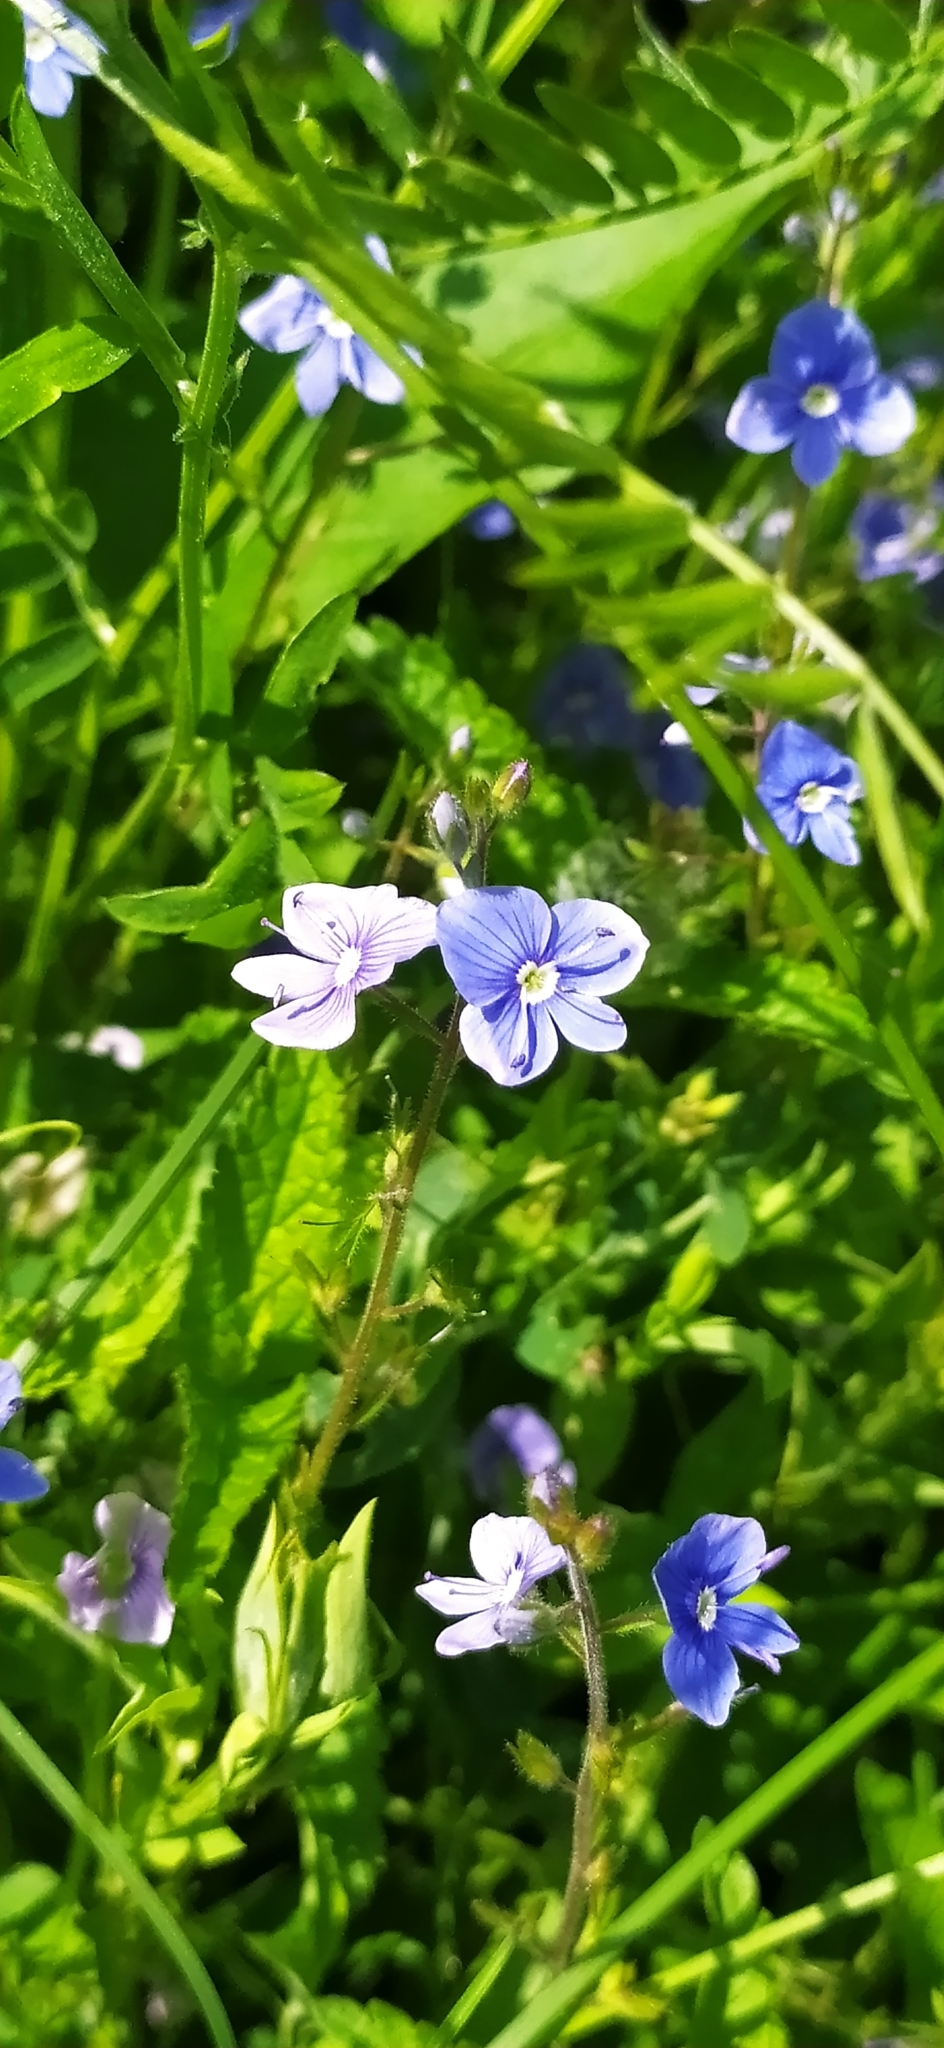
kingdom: Plantae
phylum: Tracheophyta
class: Magnoliopsida
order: Lamiales
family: Plantaginaceae
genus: Veronica
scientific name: Veronica chamaedrys
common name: Germander speedwell
